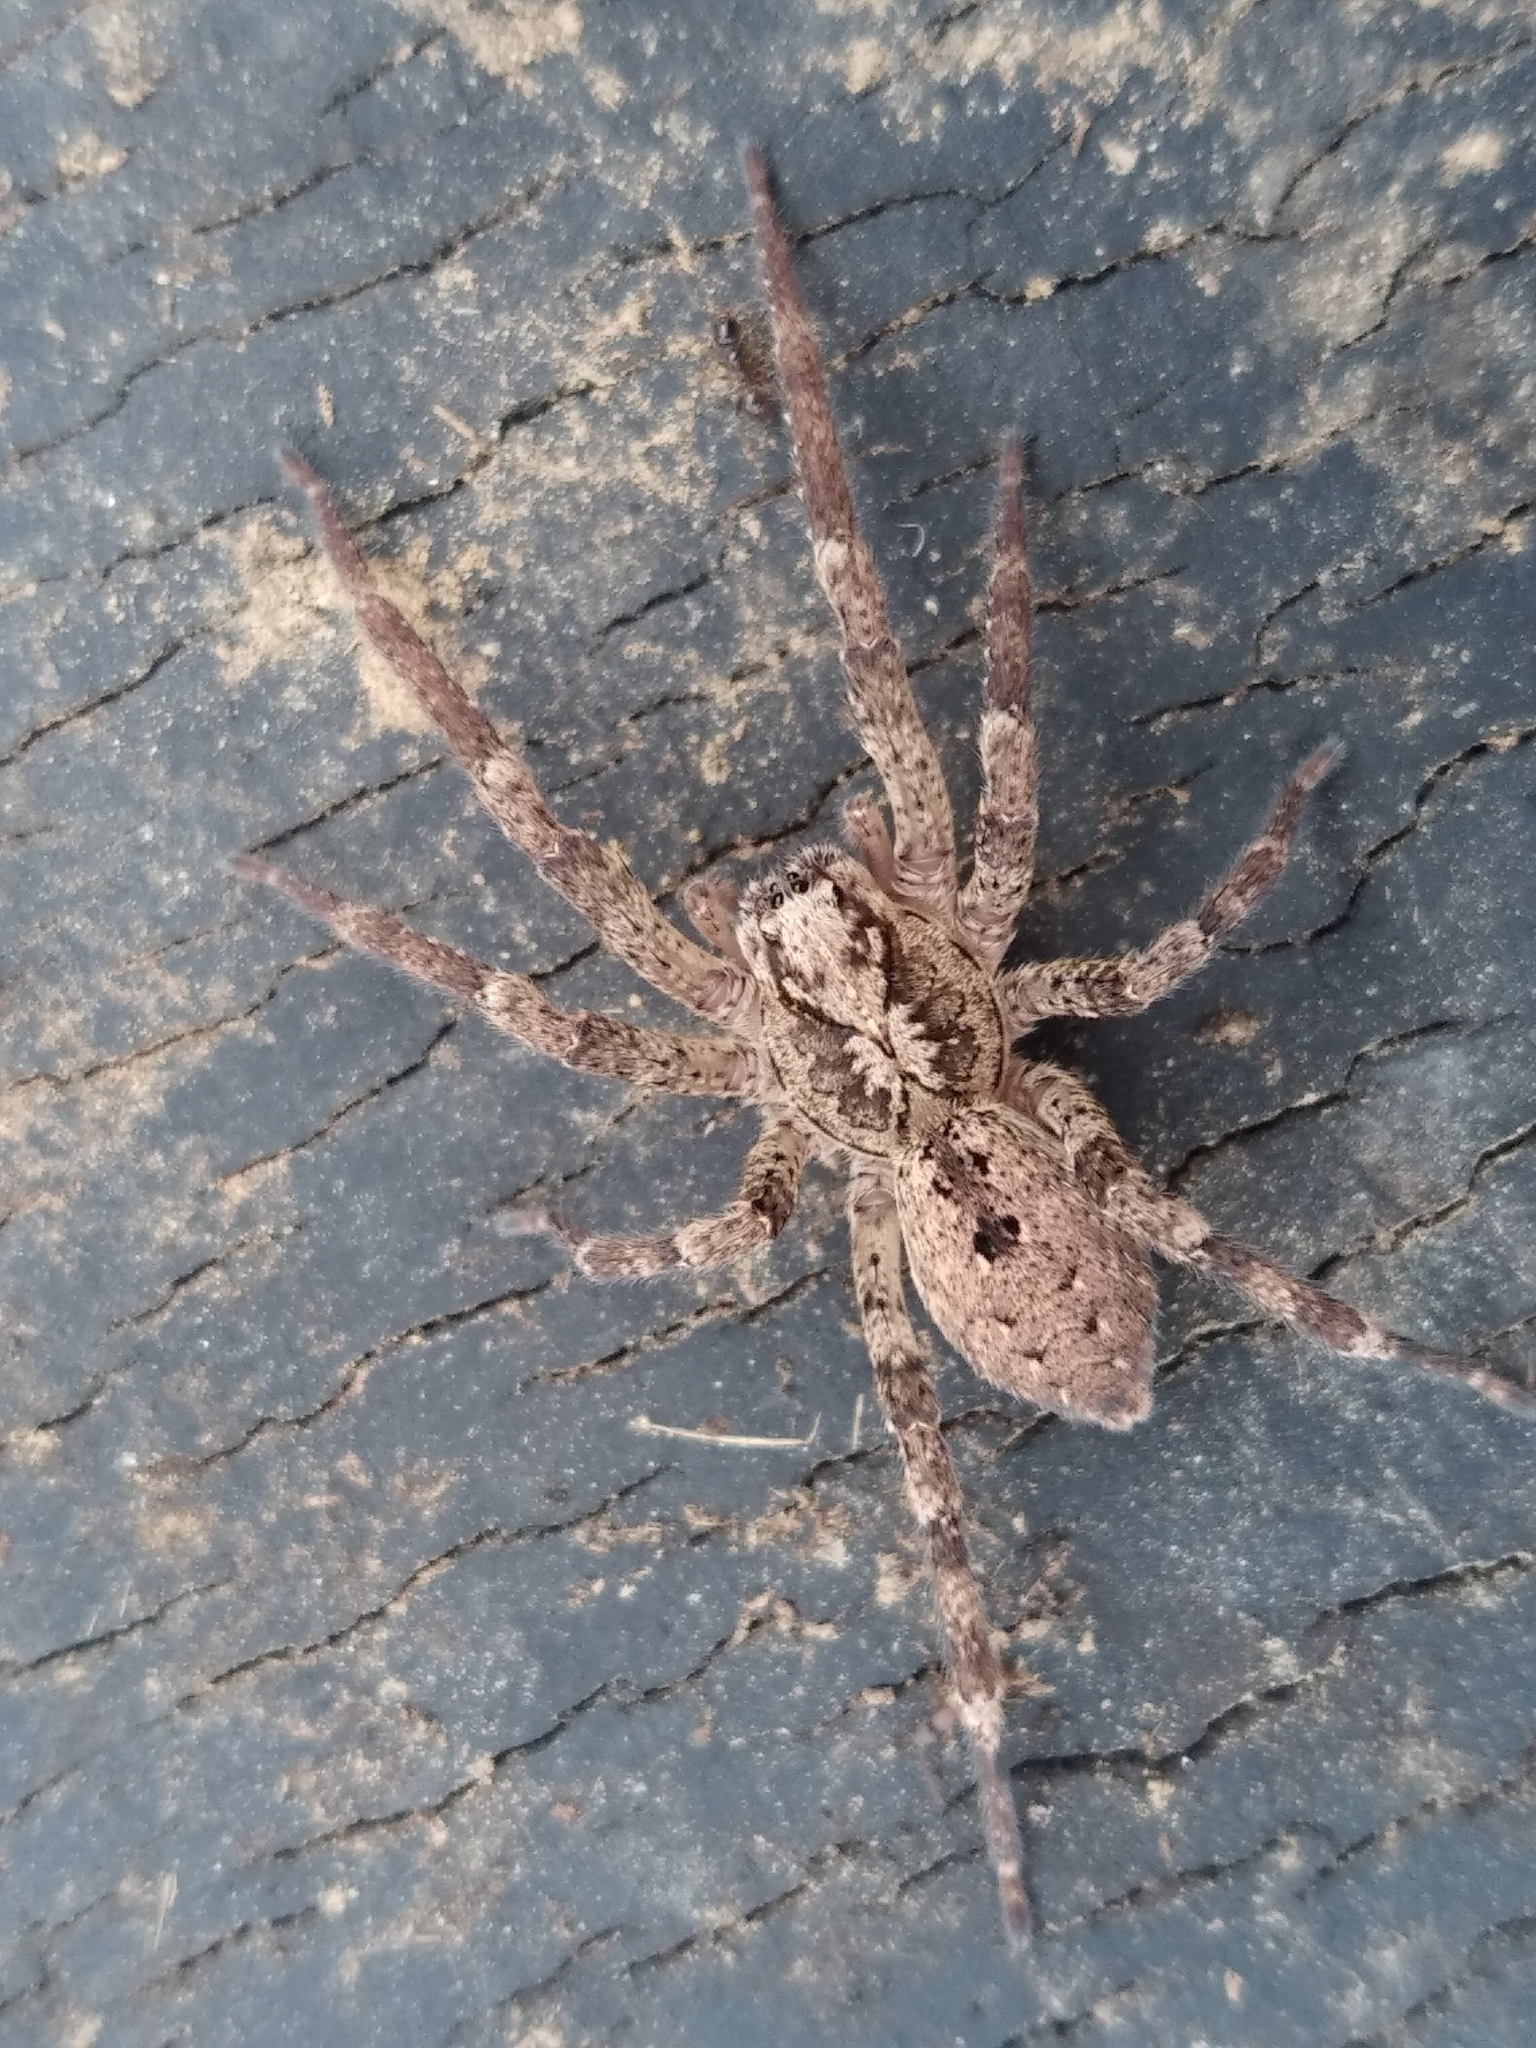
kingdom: Animalia
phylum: Arthropoda
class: Arachnida
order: Araneae
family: Zoropsidae
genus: Zoropsis
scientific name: Zoropsis spinimana
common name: Zoropsid spider
